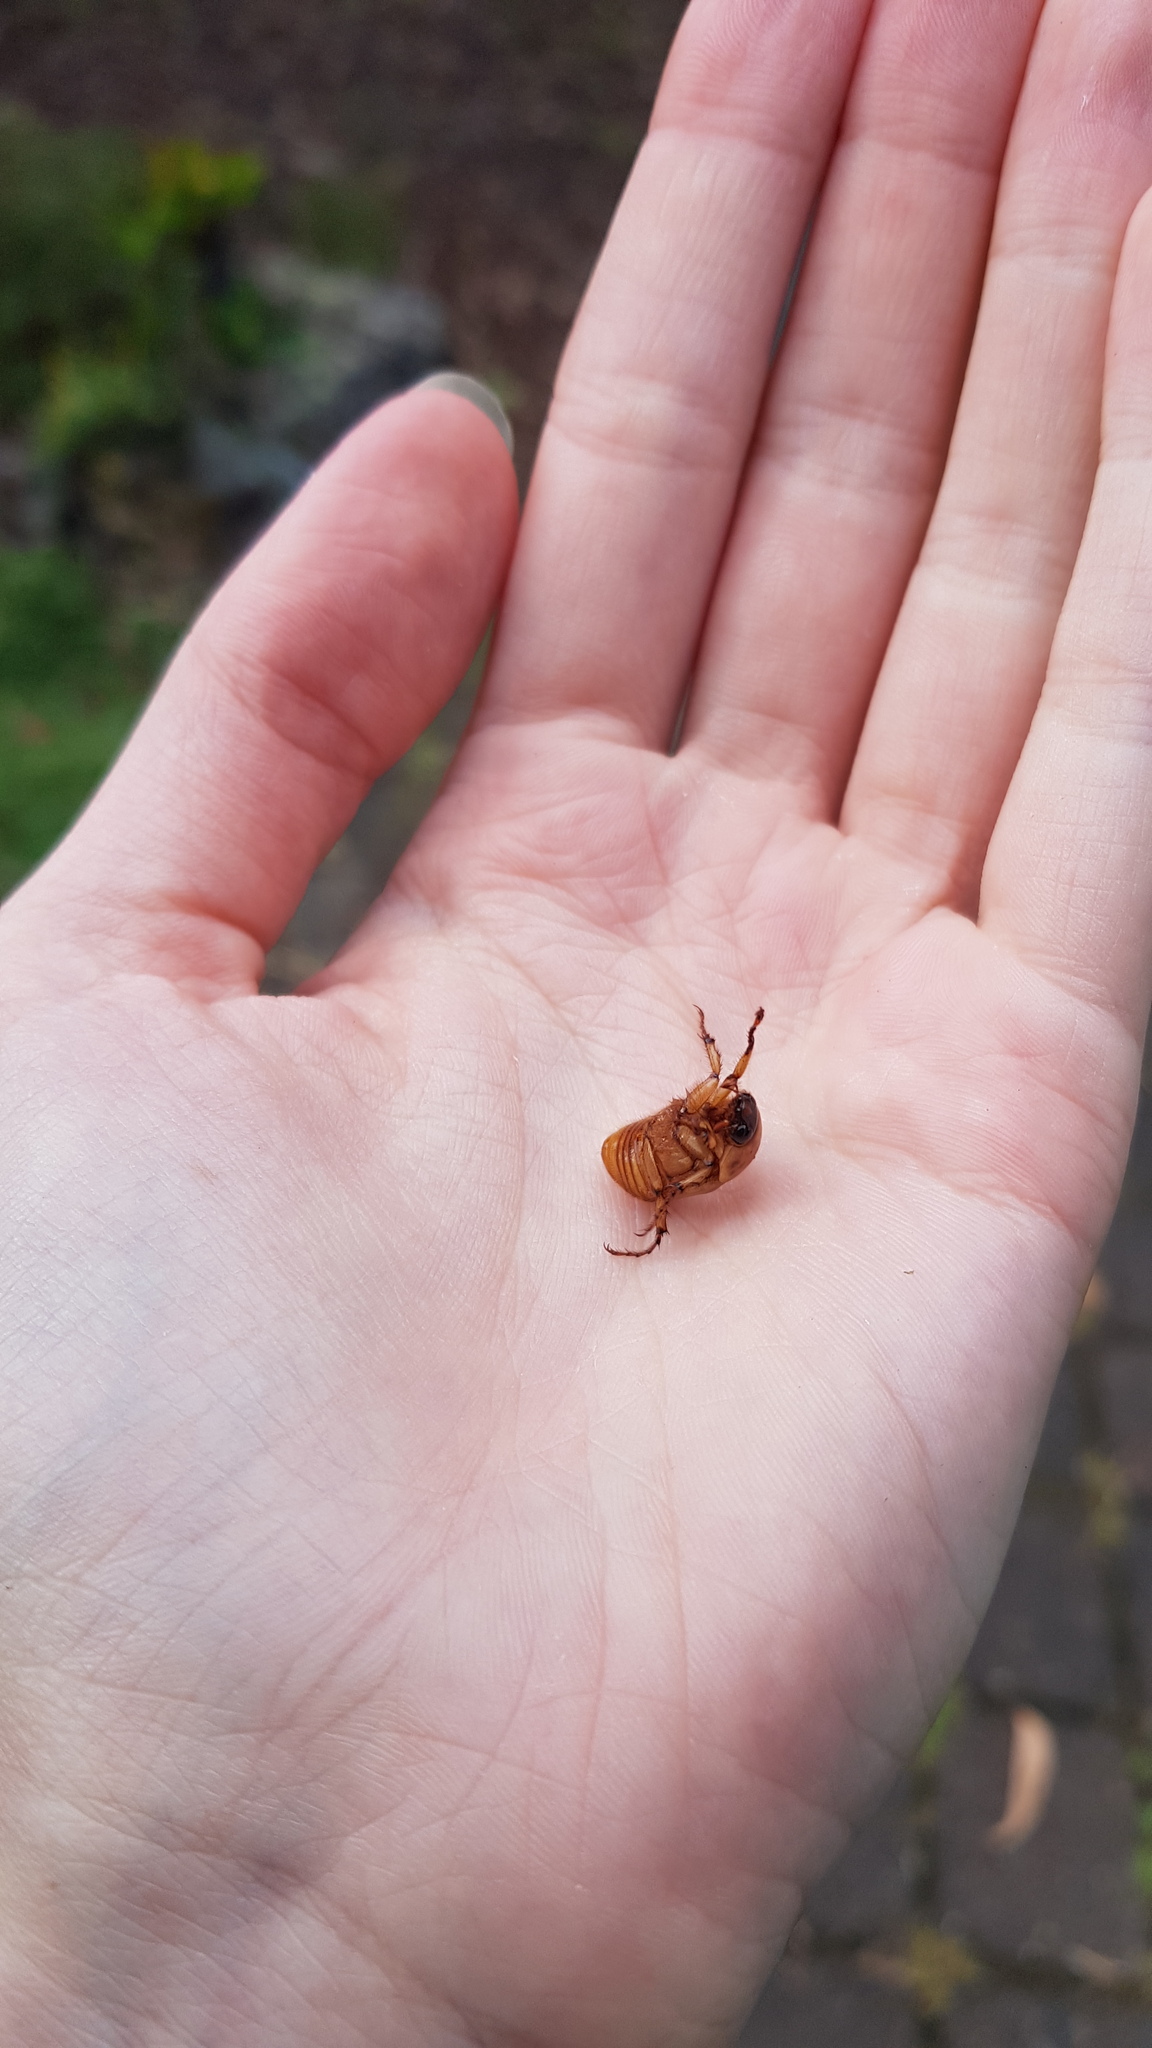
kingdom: Animalia
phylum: Arthropoda
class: Insecta
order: Coleoptera
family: Scarabaeidae
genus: Cyclocephala
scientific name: Cyclocephala signaticollis
